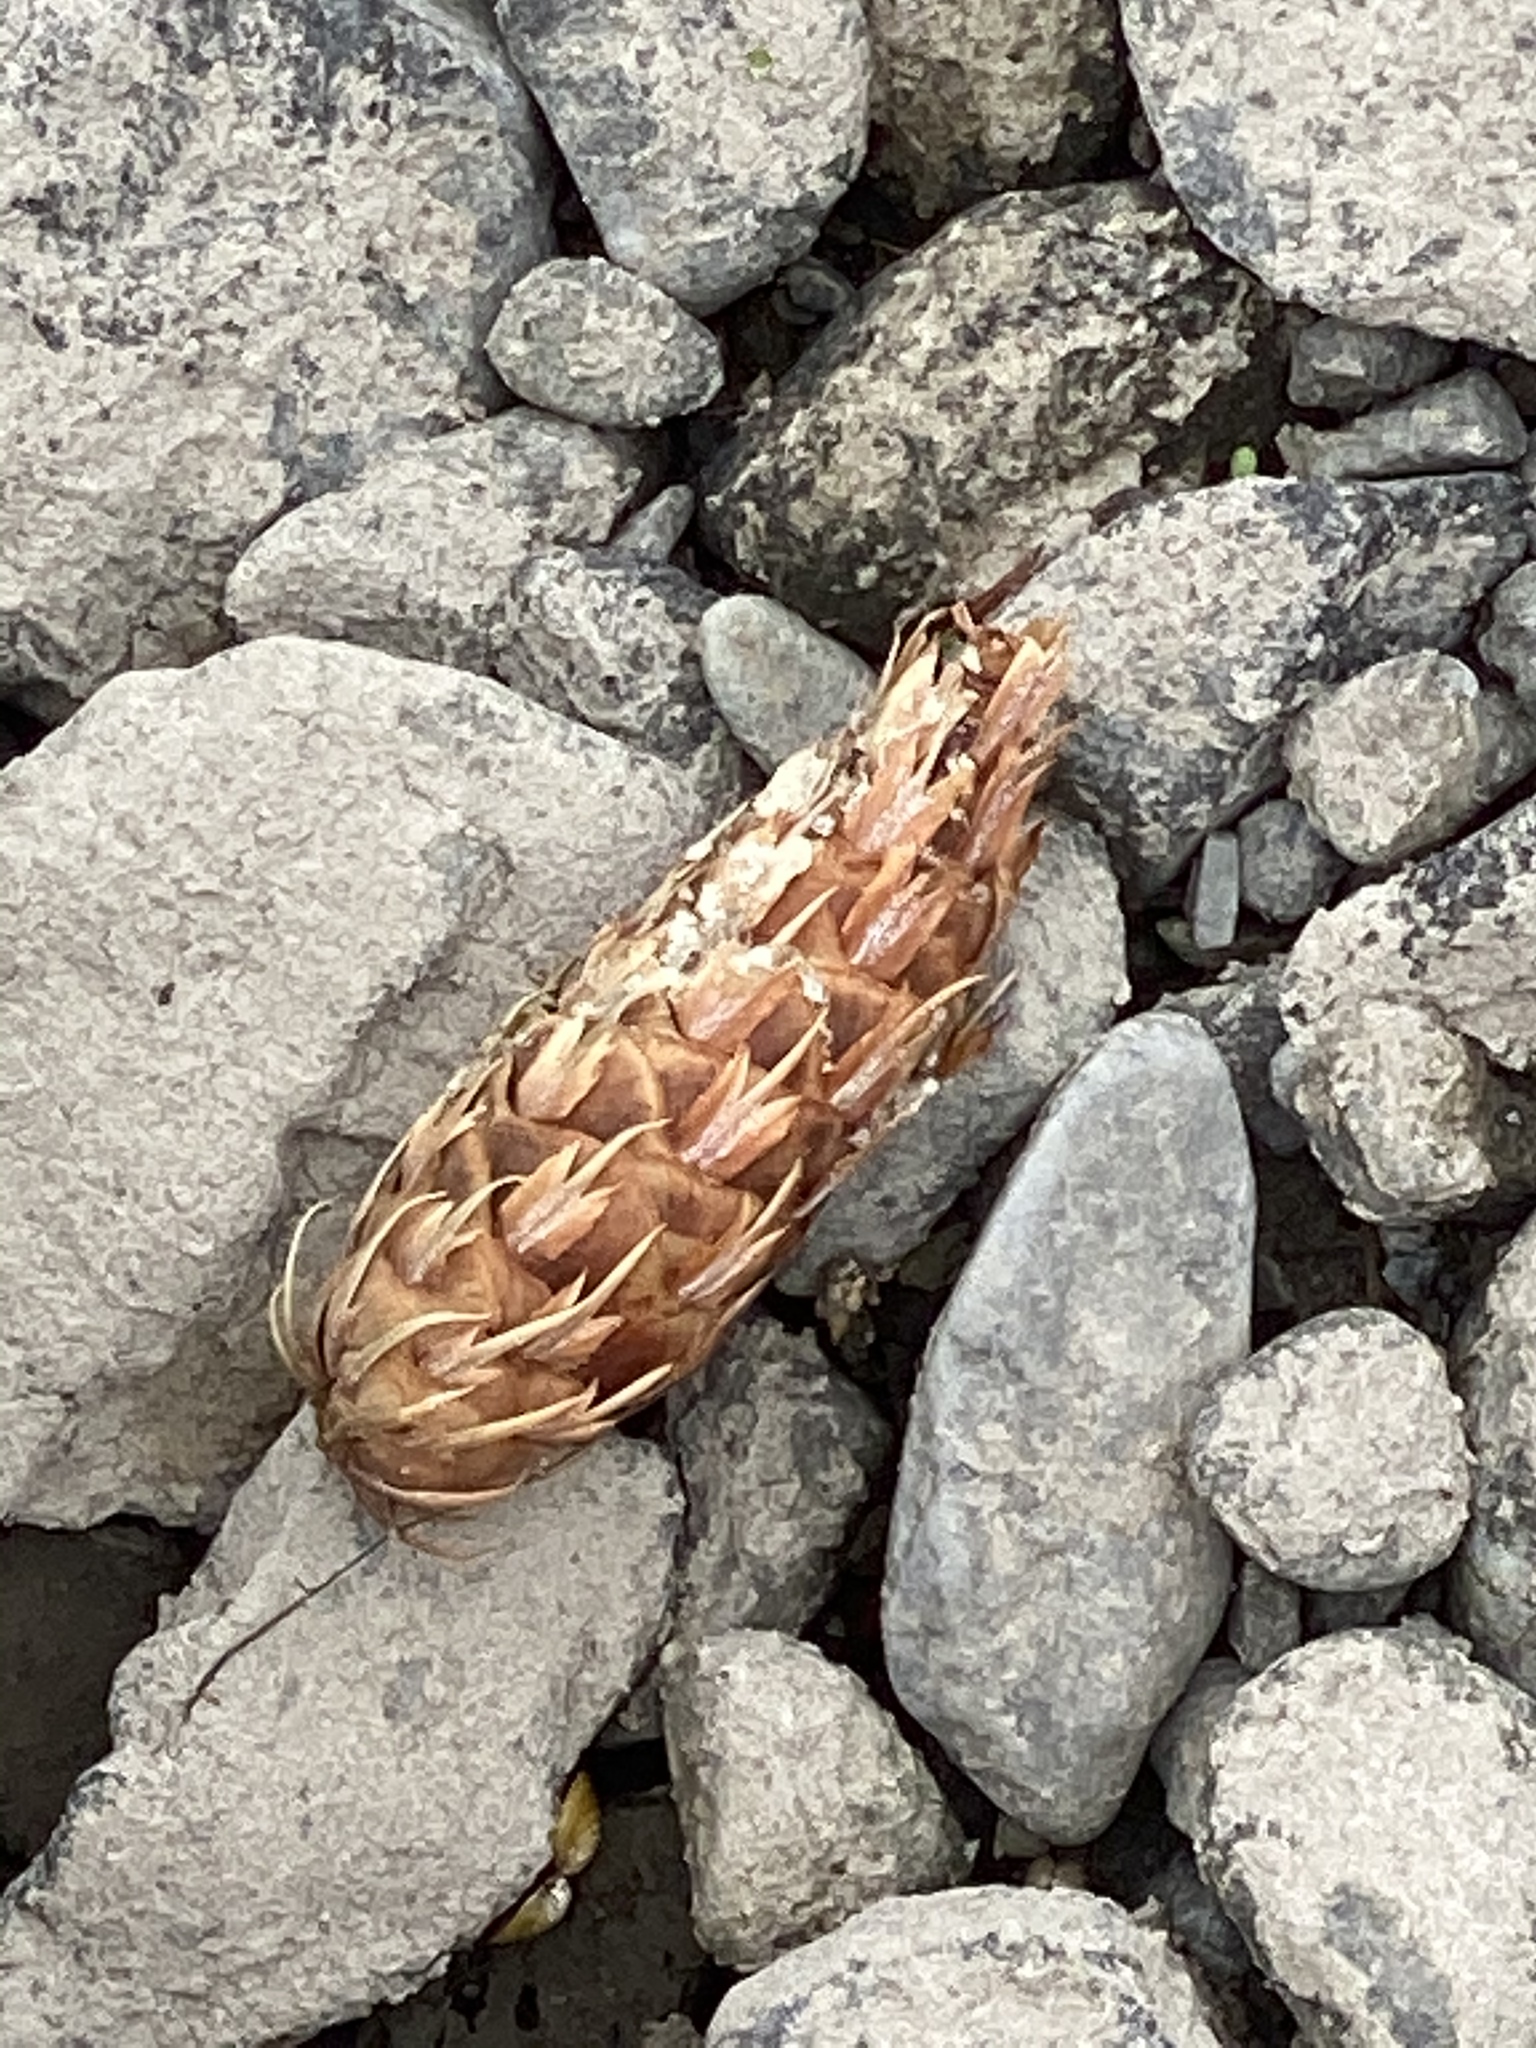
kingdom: Plantae
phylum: Tracheophyta
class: Pinopsida
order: Pinales
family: Pinaceae
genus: Pseudotsuga
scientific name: Pseudotsuga menziesii
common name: Douglas fir
